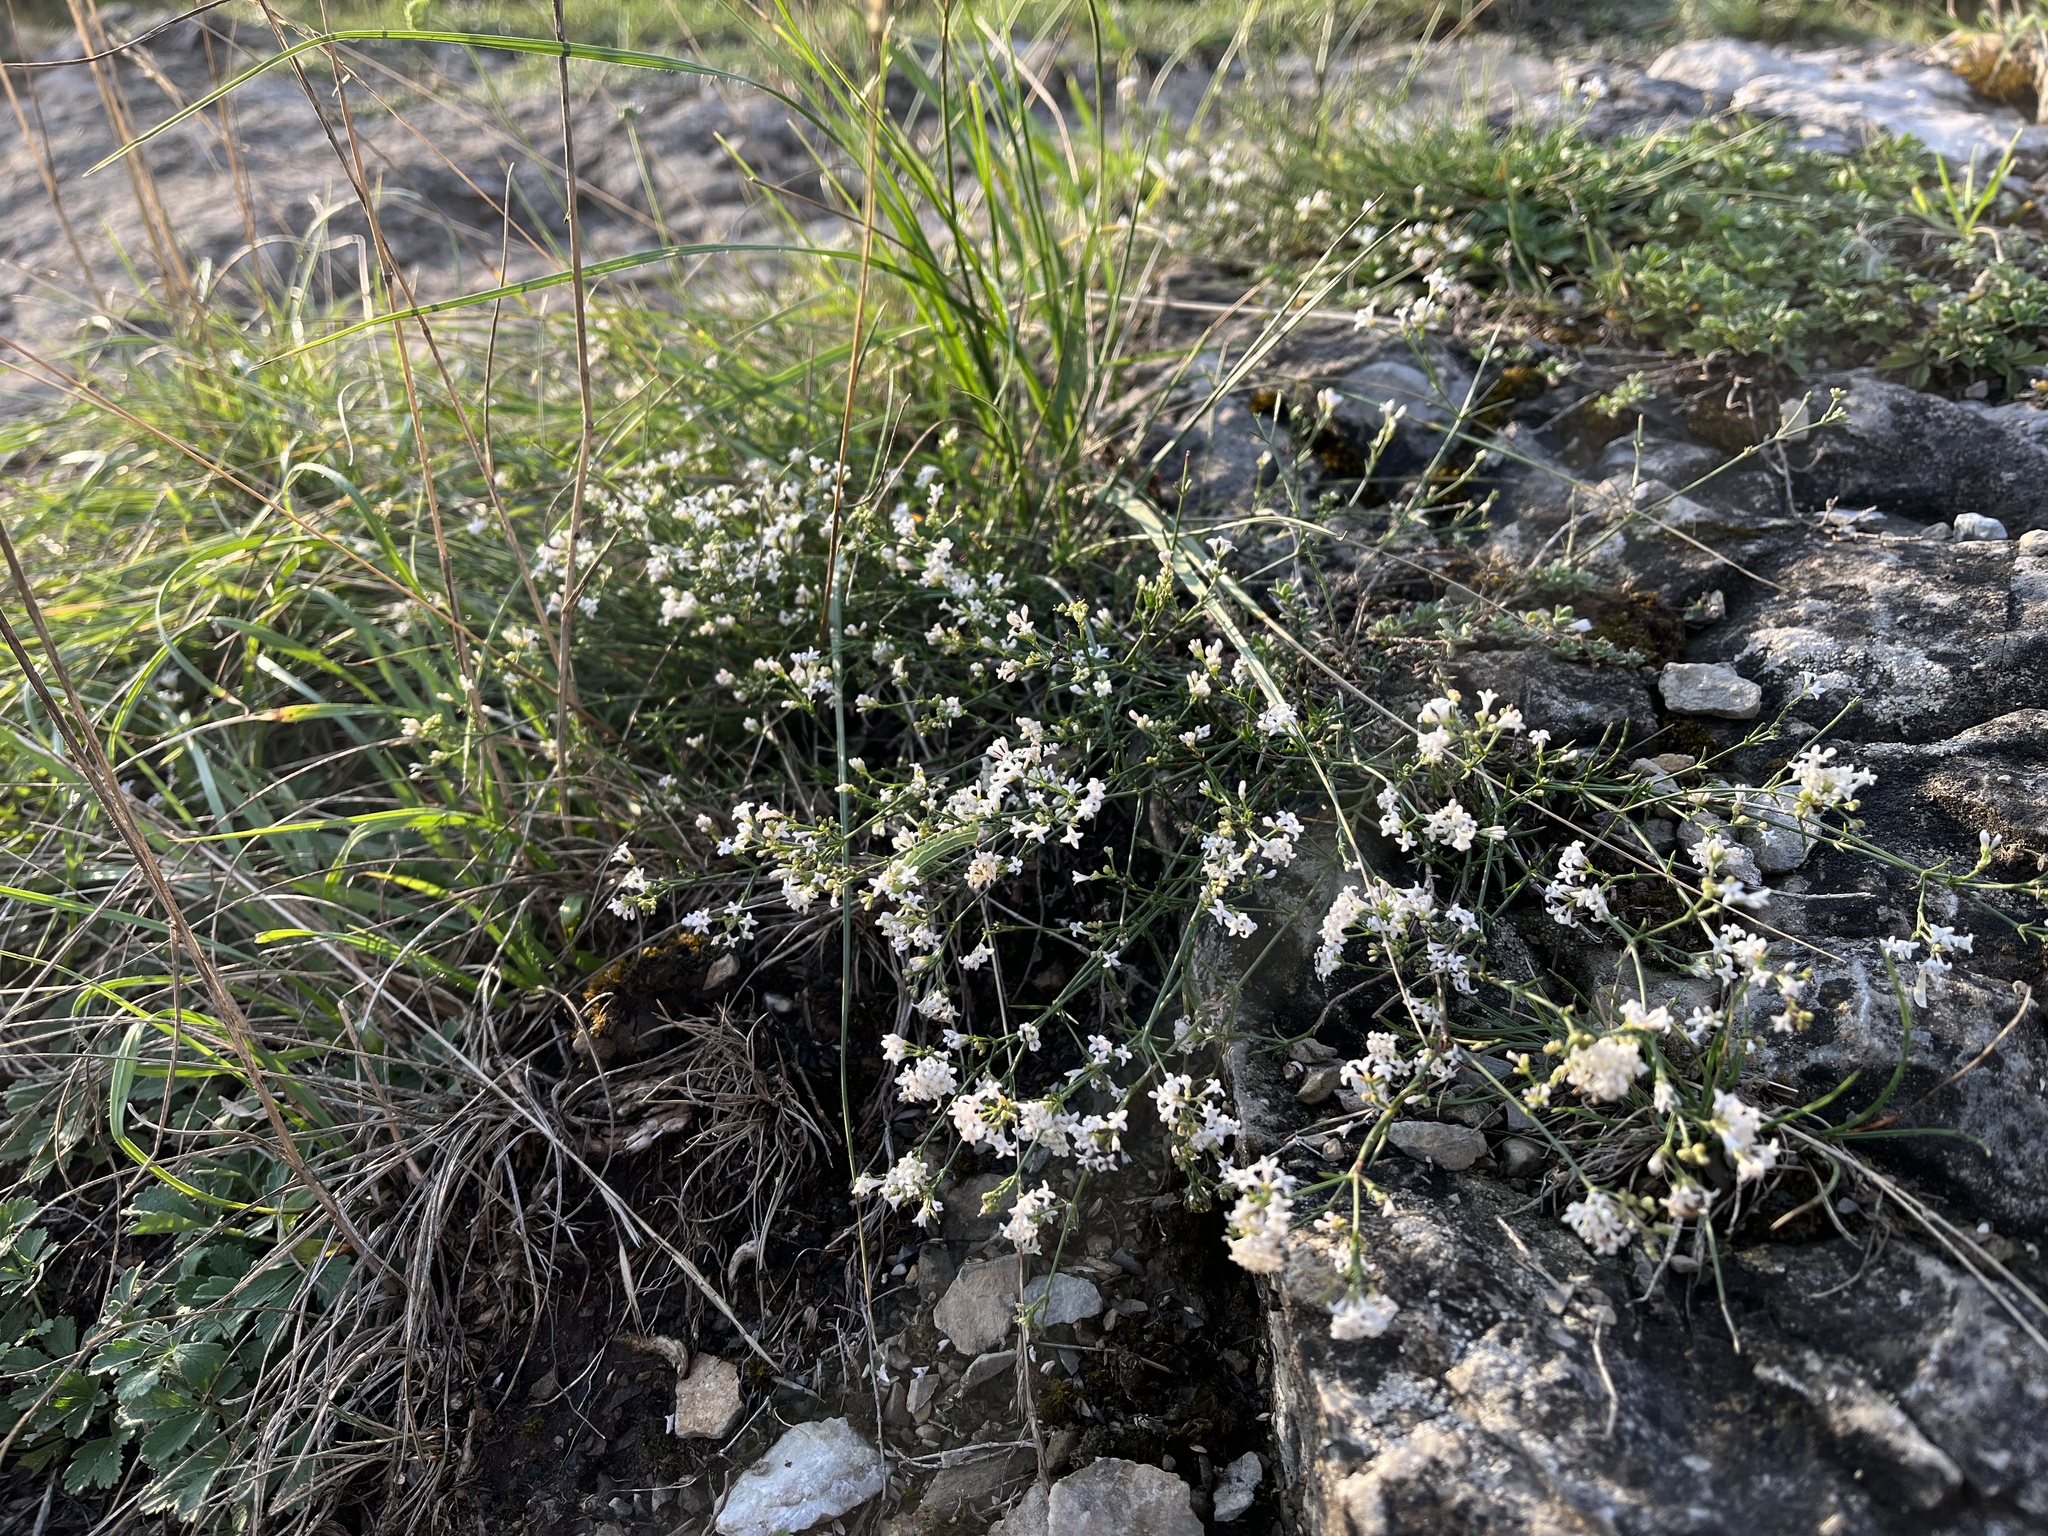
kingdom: Plantae
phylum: Tracheophyta
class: Magnoliopsida
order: Gentianales
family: Rubiaceae
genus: Cynanchica
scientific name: Cynanchica pyrenaica
